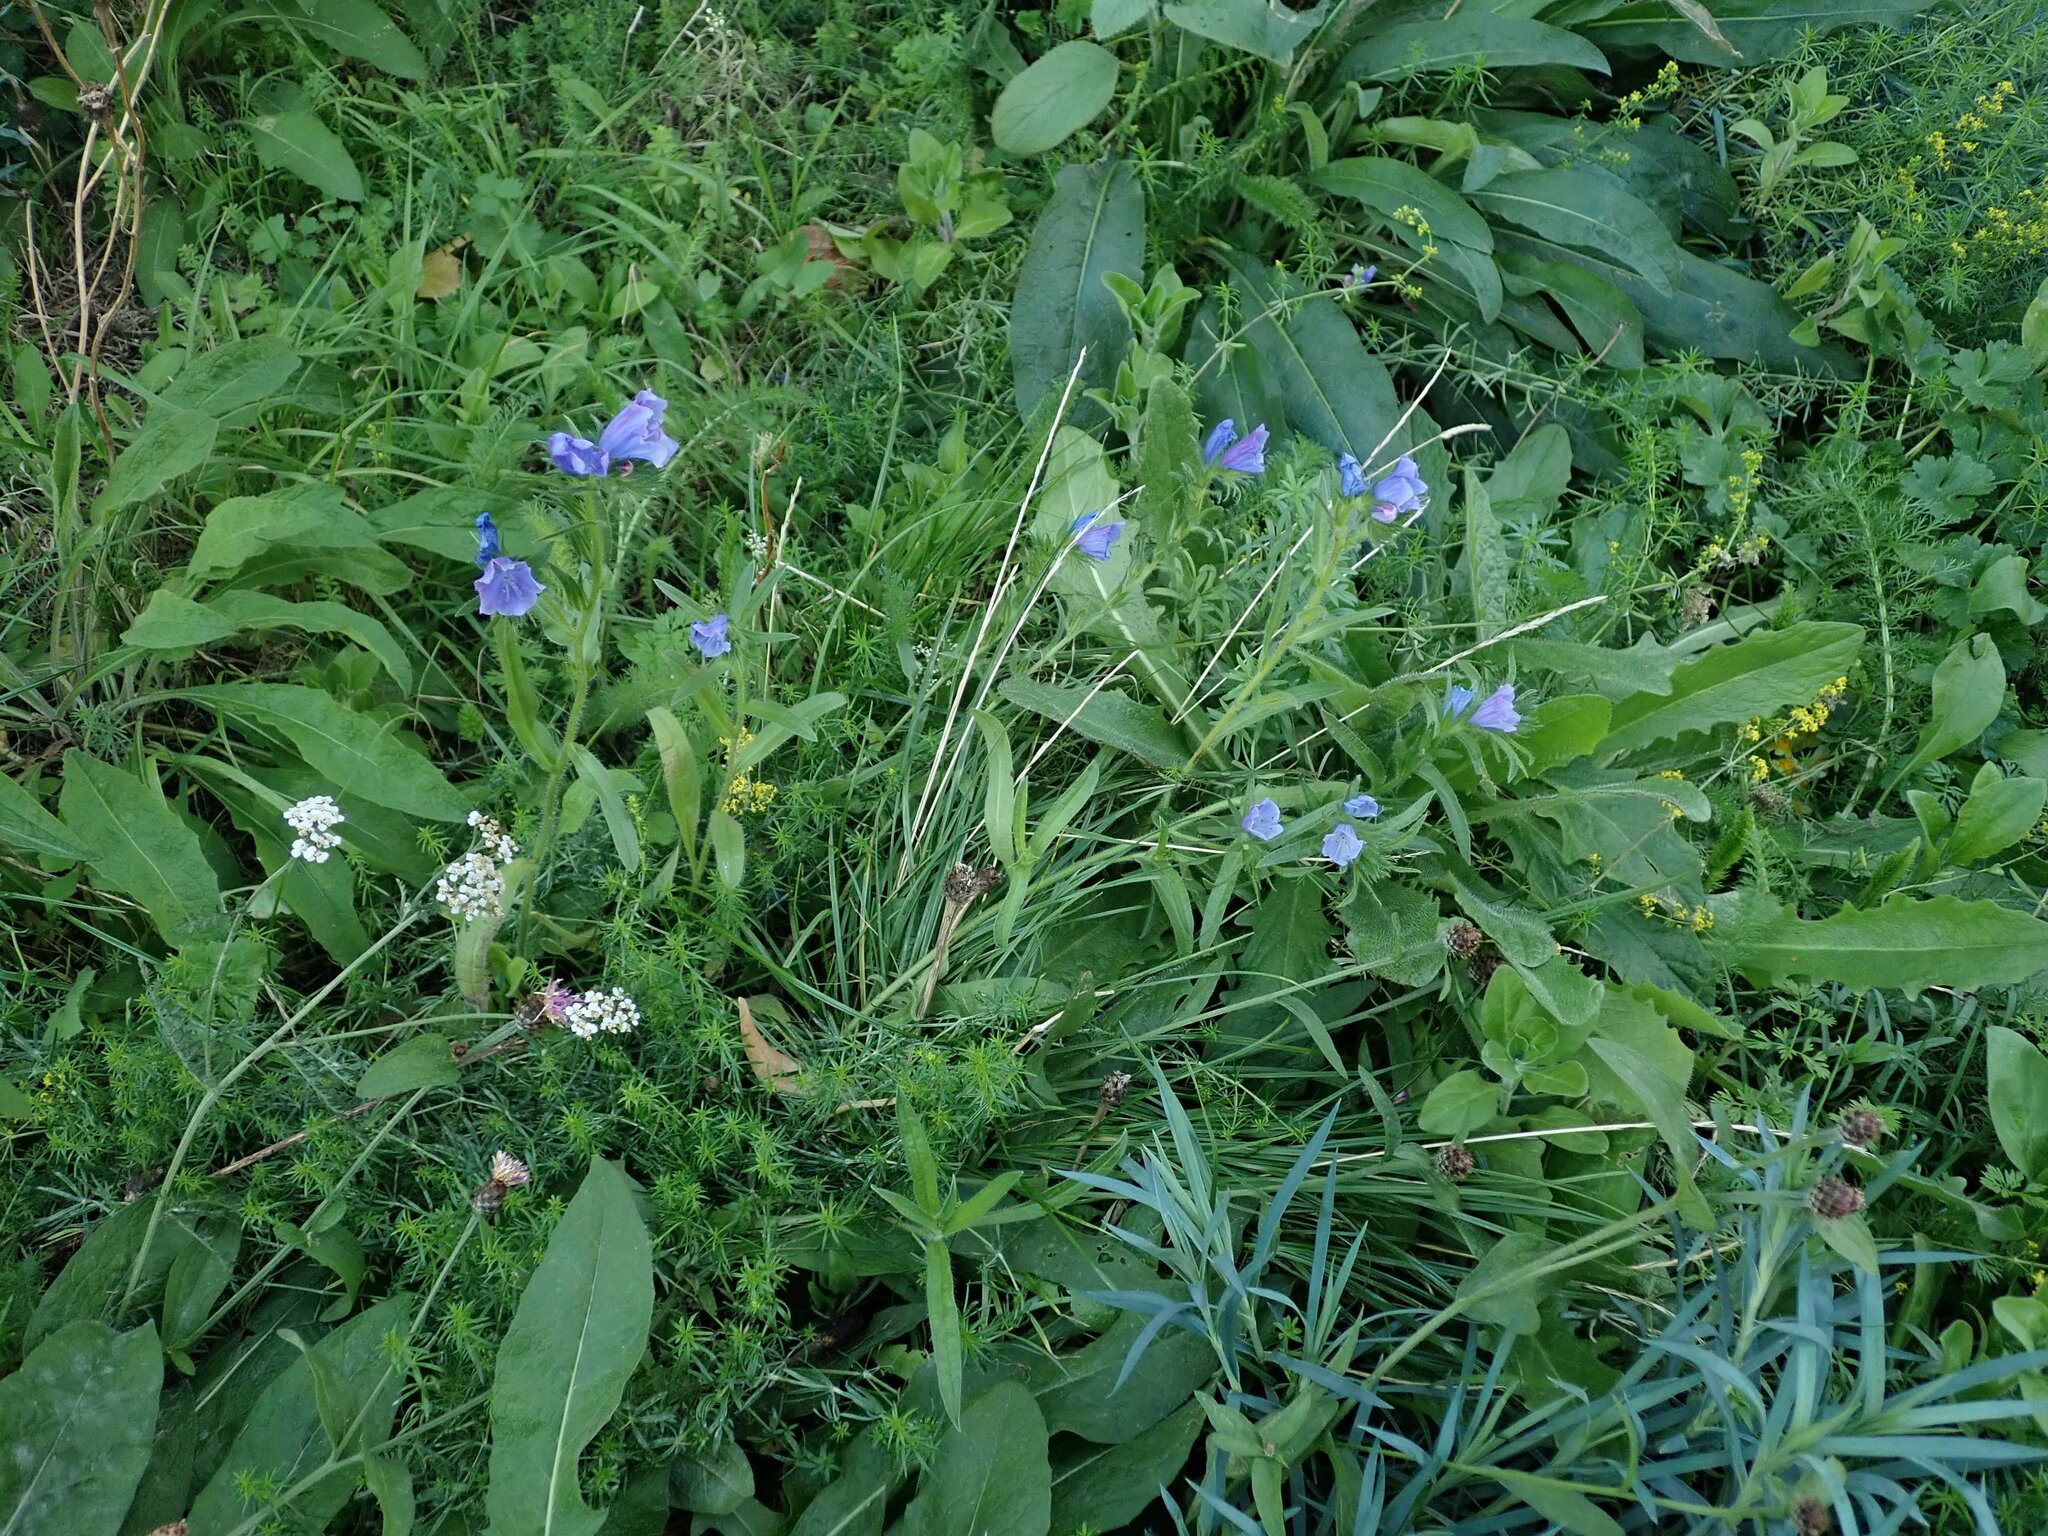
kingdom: Plantae
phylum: Tracheophyta
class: Magnoliopsida
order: Boraginales
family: Boraginaceae
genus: Echium
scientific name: Echium plantagineum
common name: Purple viper's-bugloss
